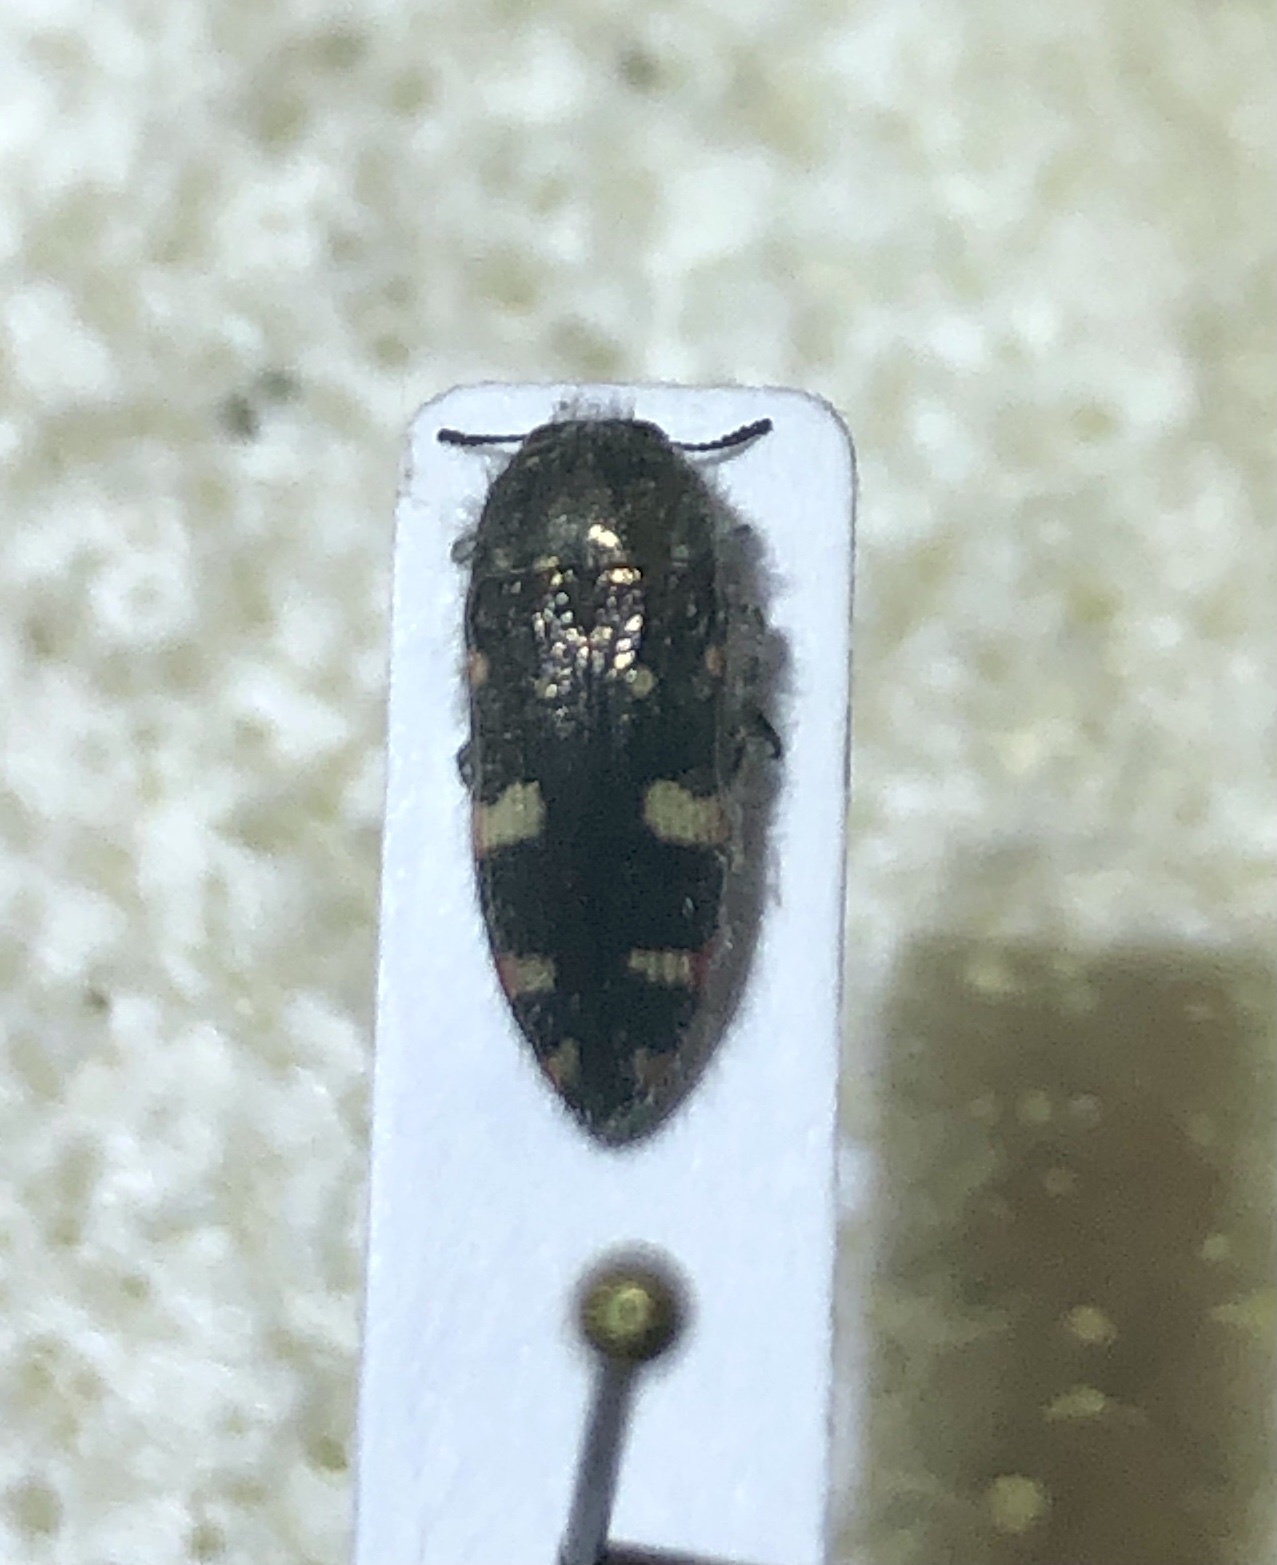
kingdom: Animalia
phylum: Arthropoda
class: Insecta
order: Coleoptera
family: Buprestidae
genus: Acmaeodera
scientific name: Acmaeodera knullorum
